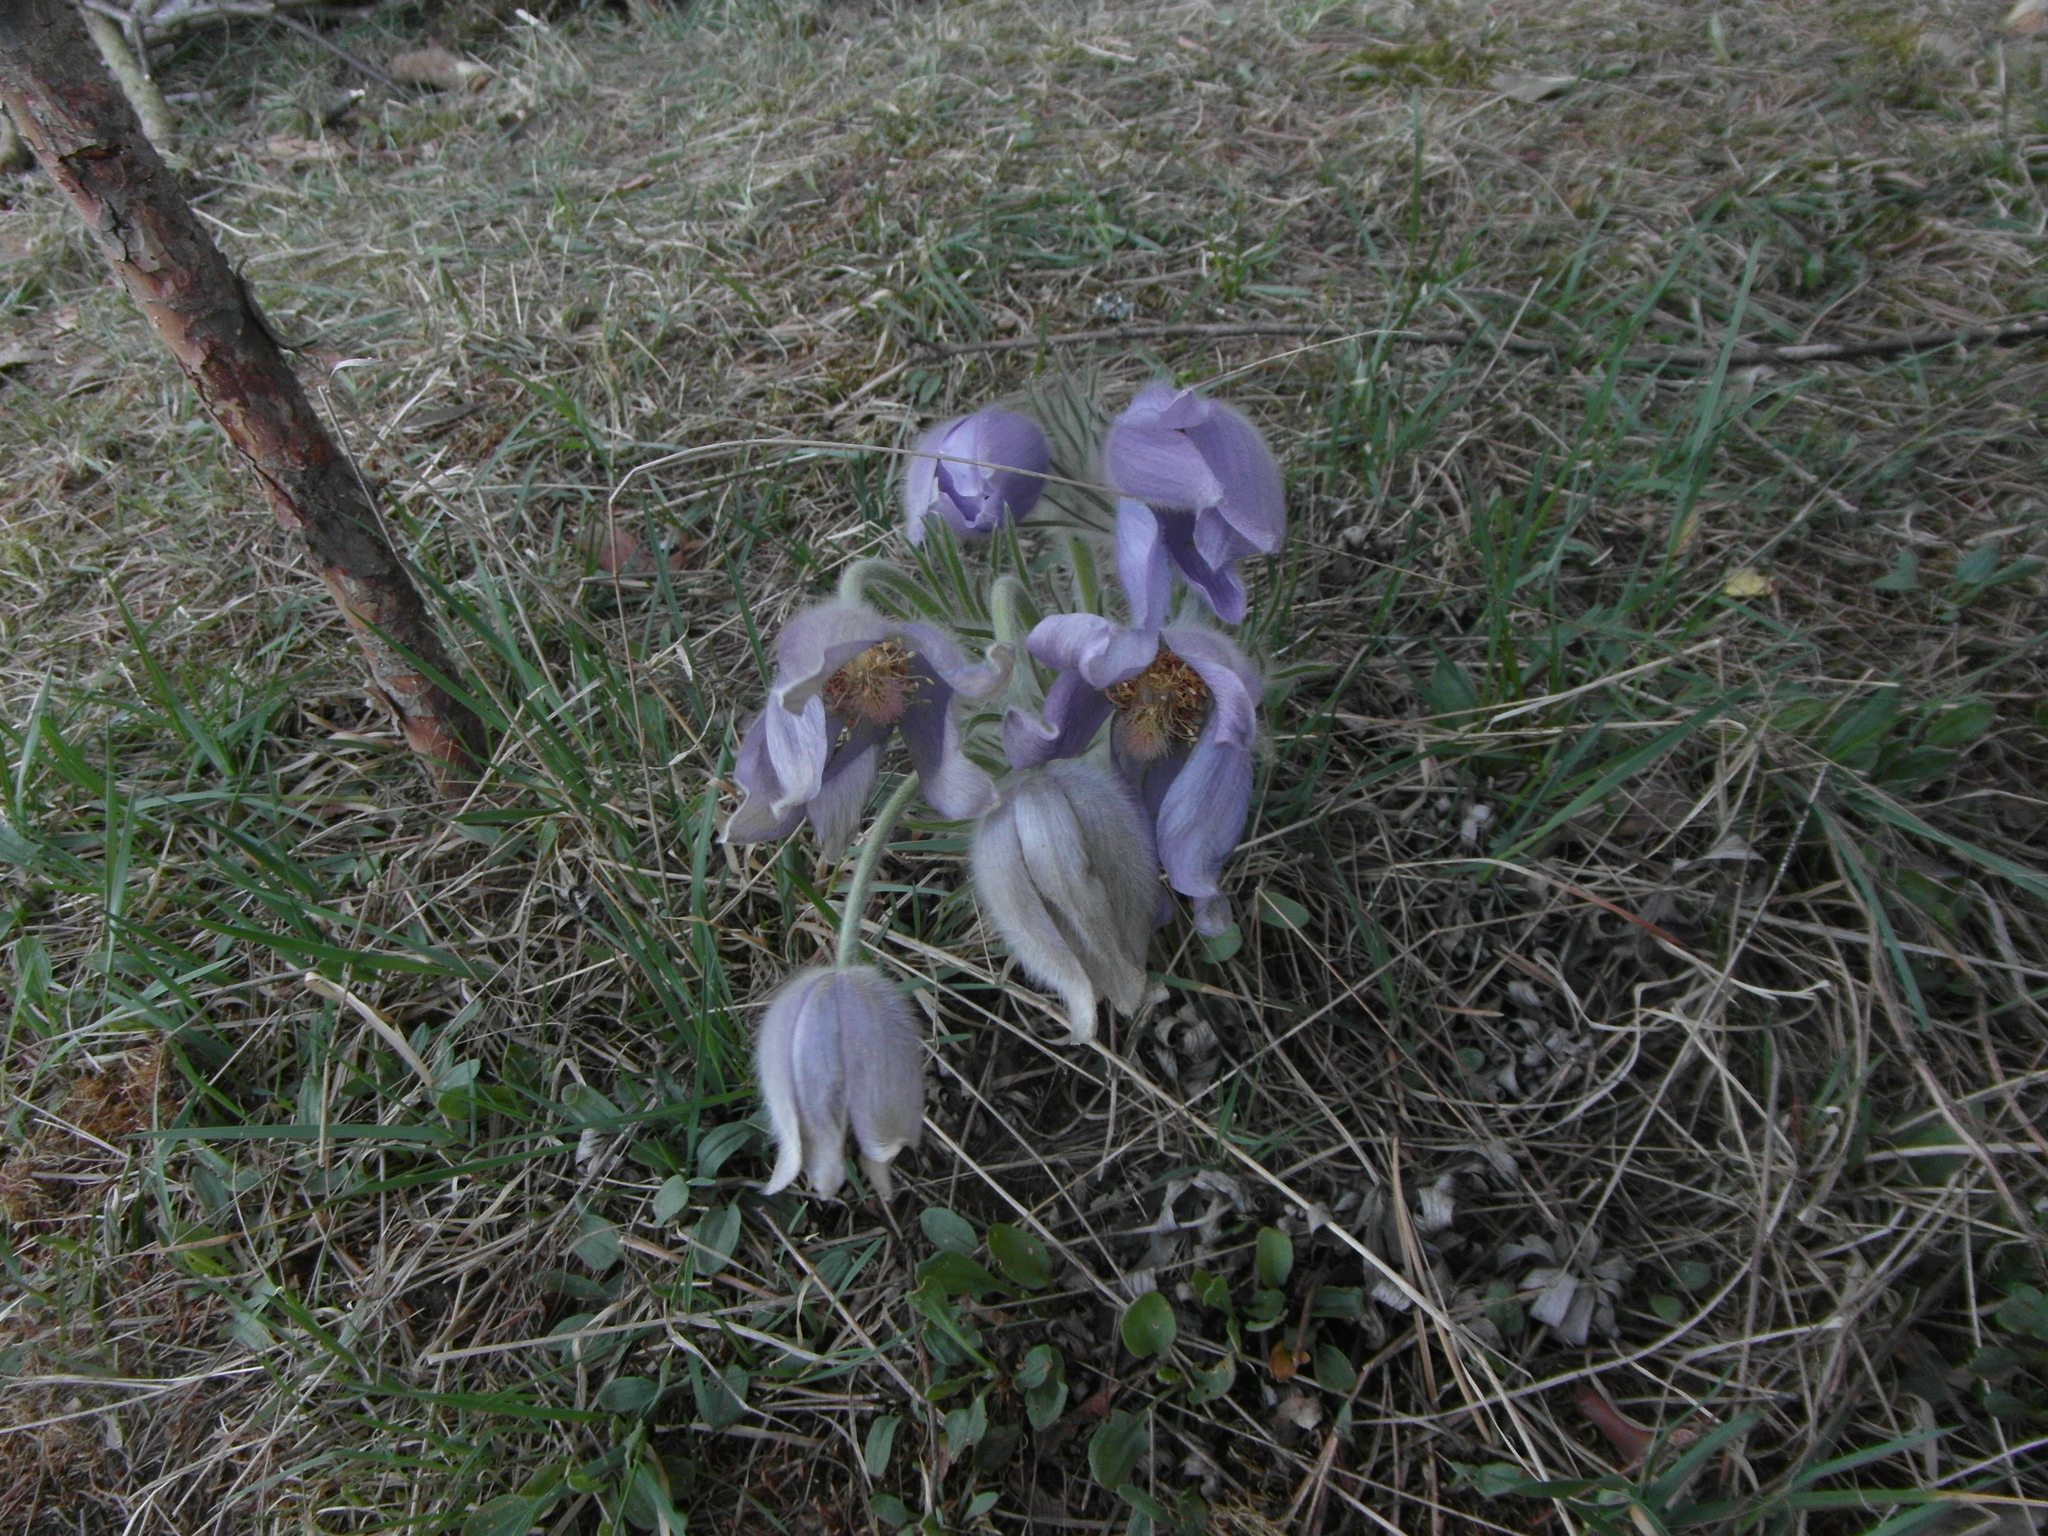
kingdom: Plantae
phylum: Tracheophyta
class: Magnoliopsida
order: Ranunculales
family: Ranunculaceae
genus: Pulsatilla
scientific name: Pulsatilla patens
